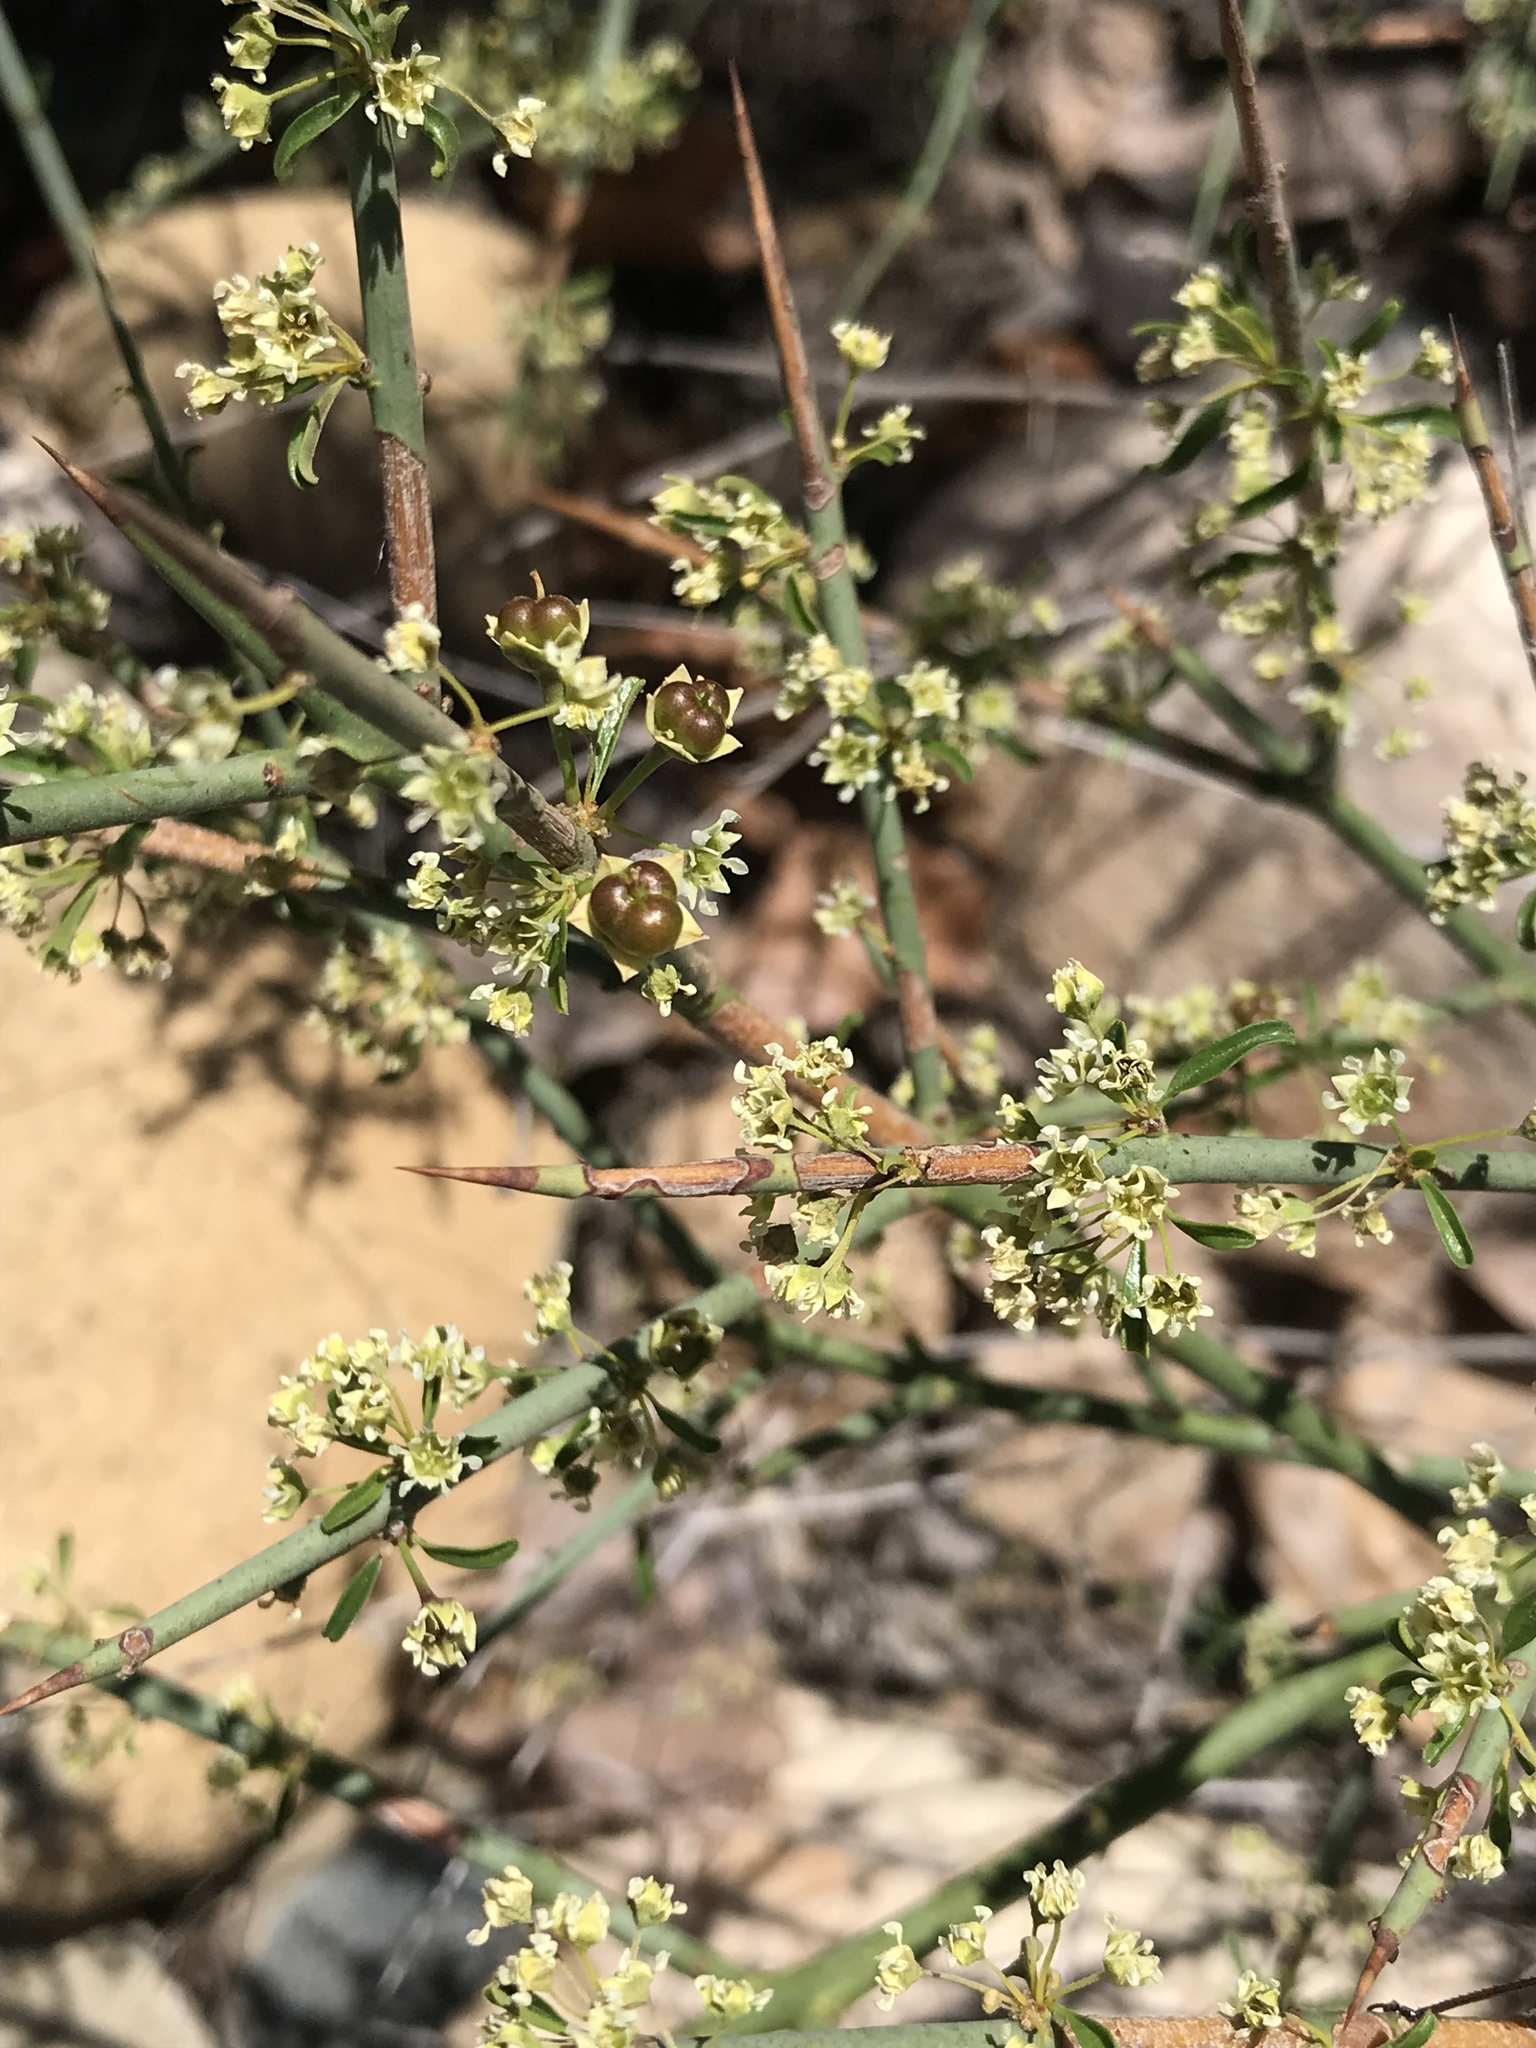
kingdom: Plantae
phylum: Tracheophyta
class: Magnoliopsida
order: Rosales
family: Rhamnaceae
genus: Adolphia
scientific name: Adolphia californica
